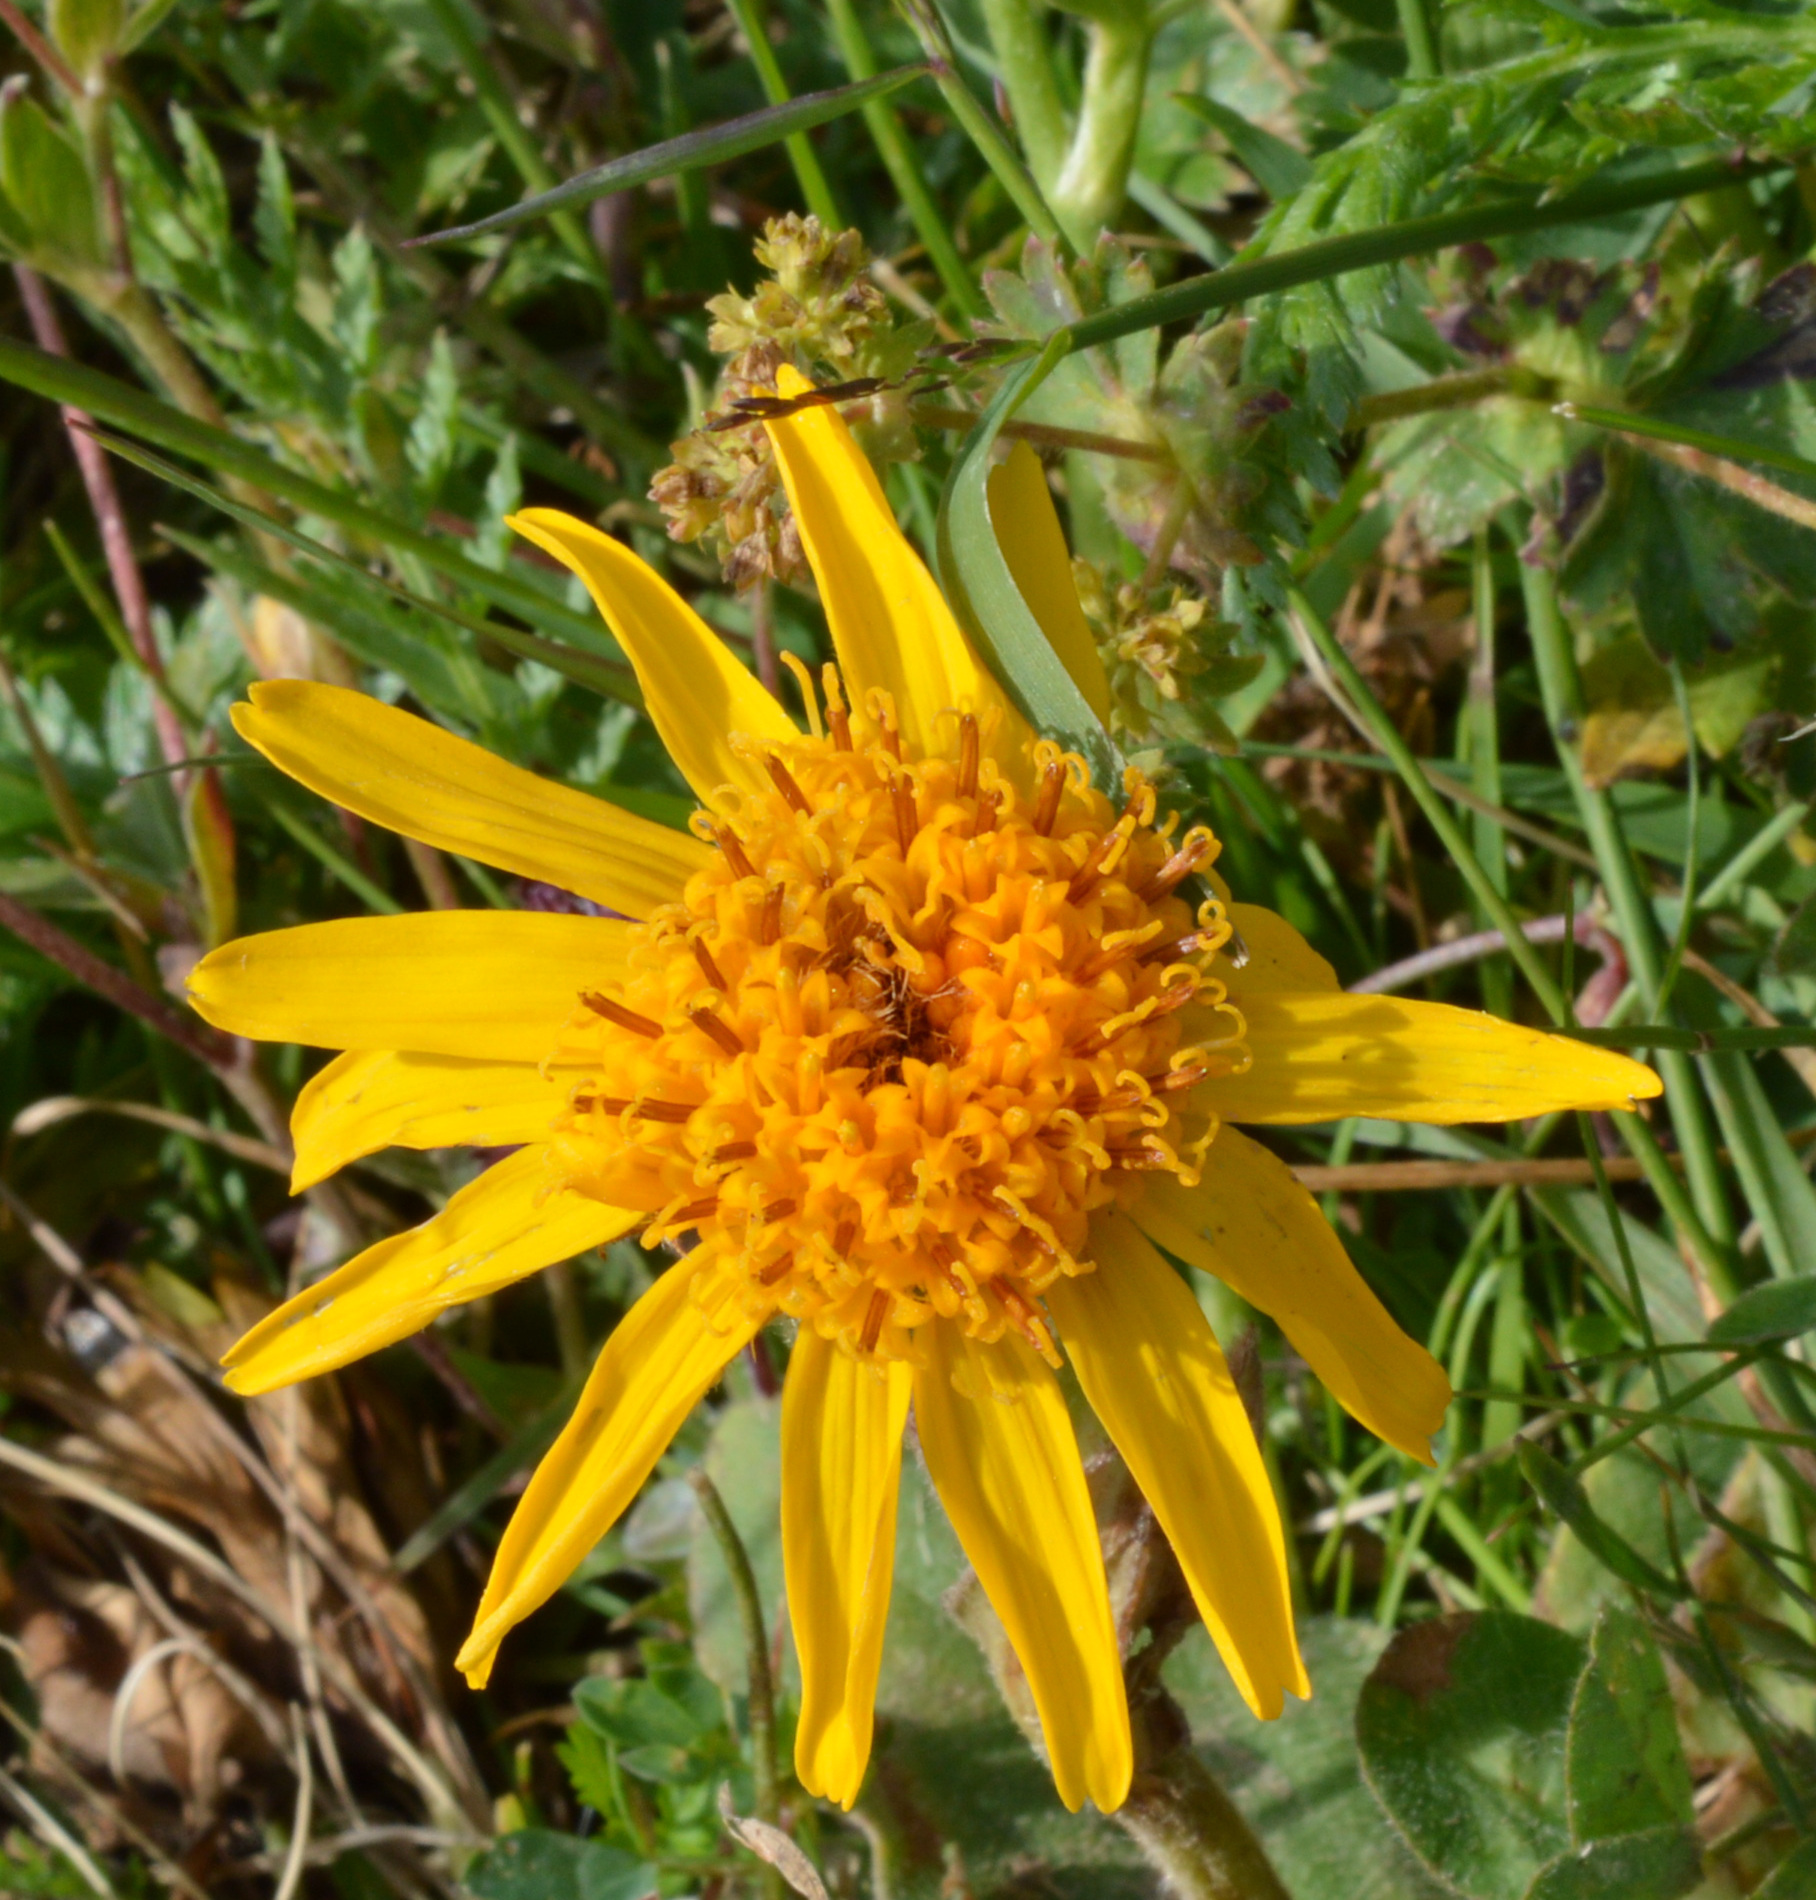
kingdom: Plantae
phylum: Tracheophyta
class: Magnoliopsida
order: Asterales
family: Asteraceae
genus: Arnica
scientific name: Arnica montana
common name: Leopard's bane
